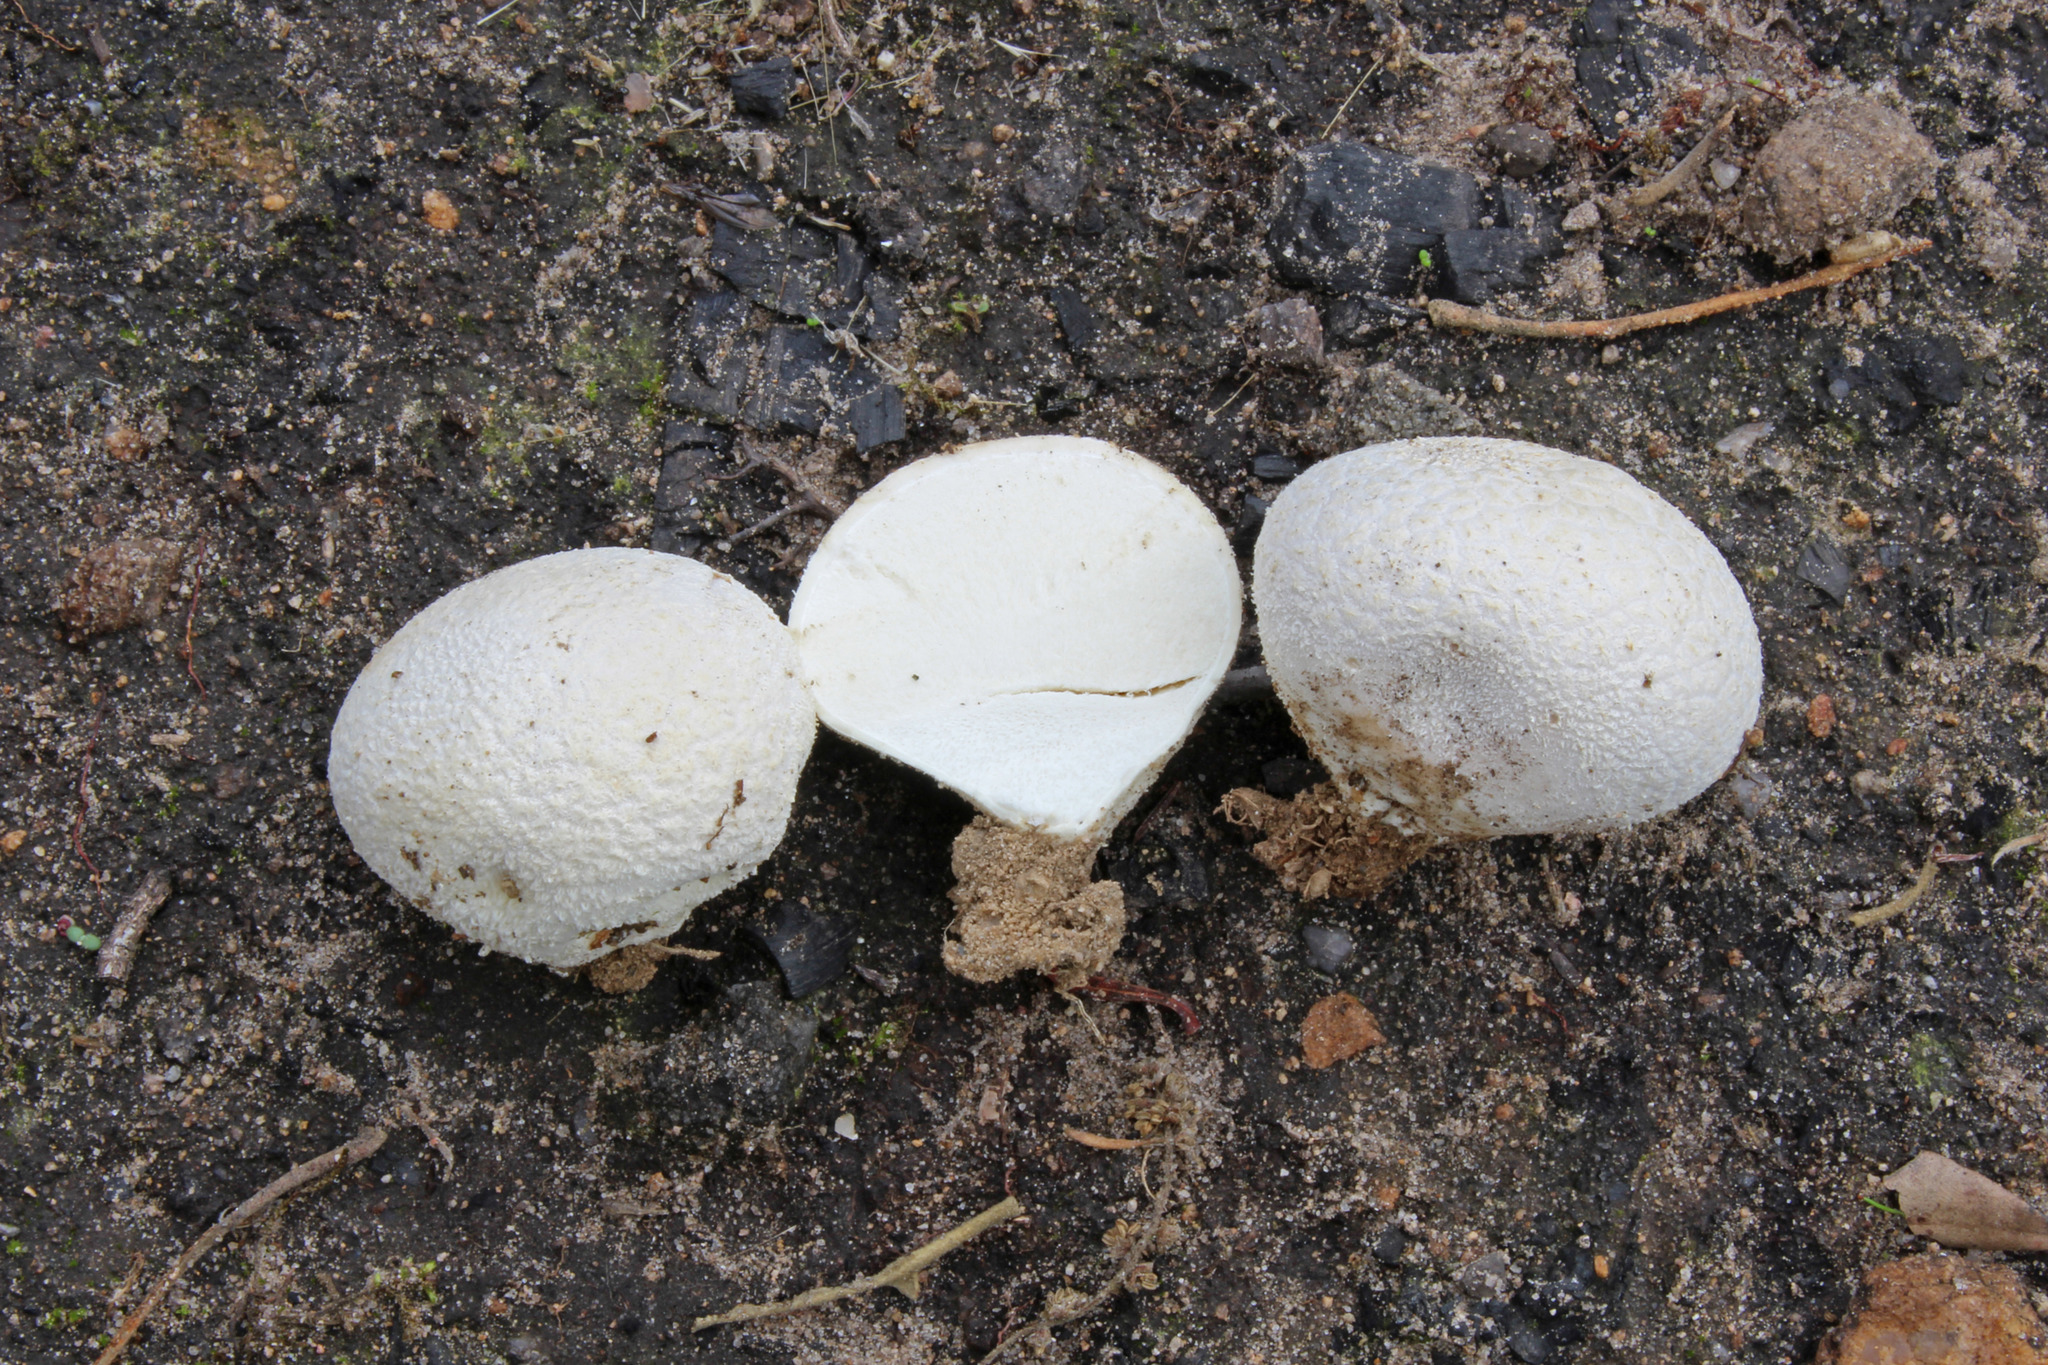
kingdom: Fungi
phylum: Basidiomycota
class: Agaricomycetes
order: Agaricales
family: Lycoperdaceae
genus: Lycoperdon
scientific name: Lycoperdon pratense
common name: Meadow puffball
